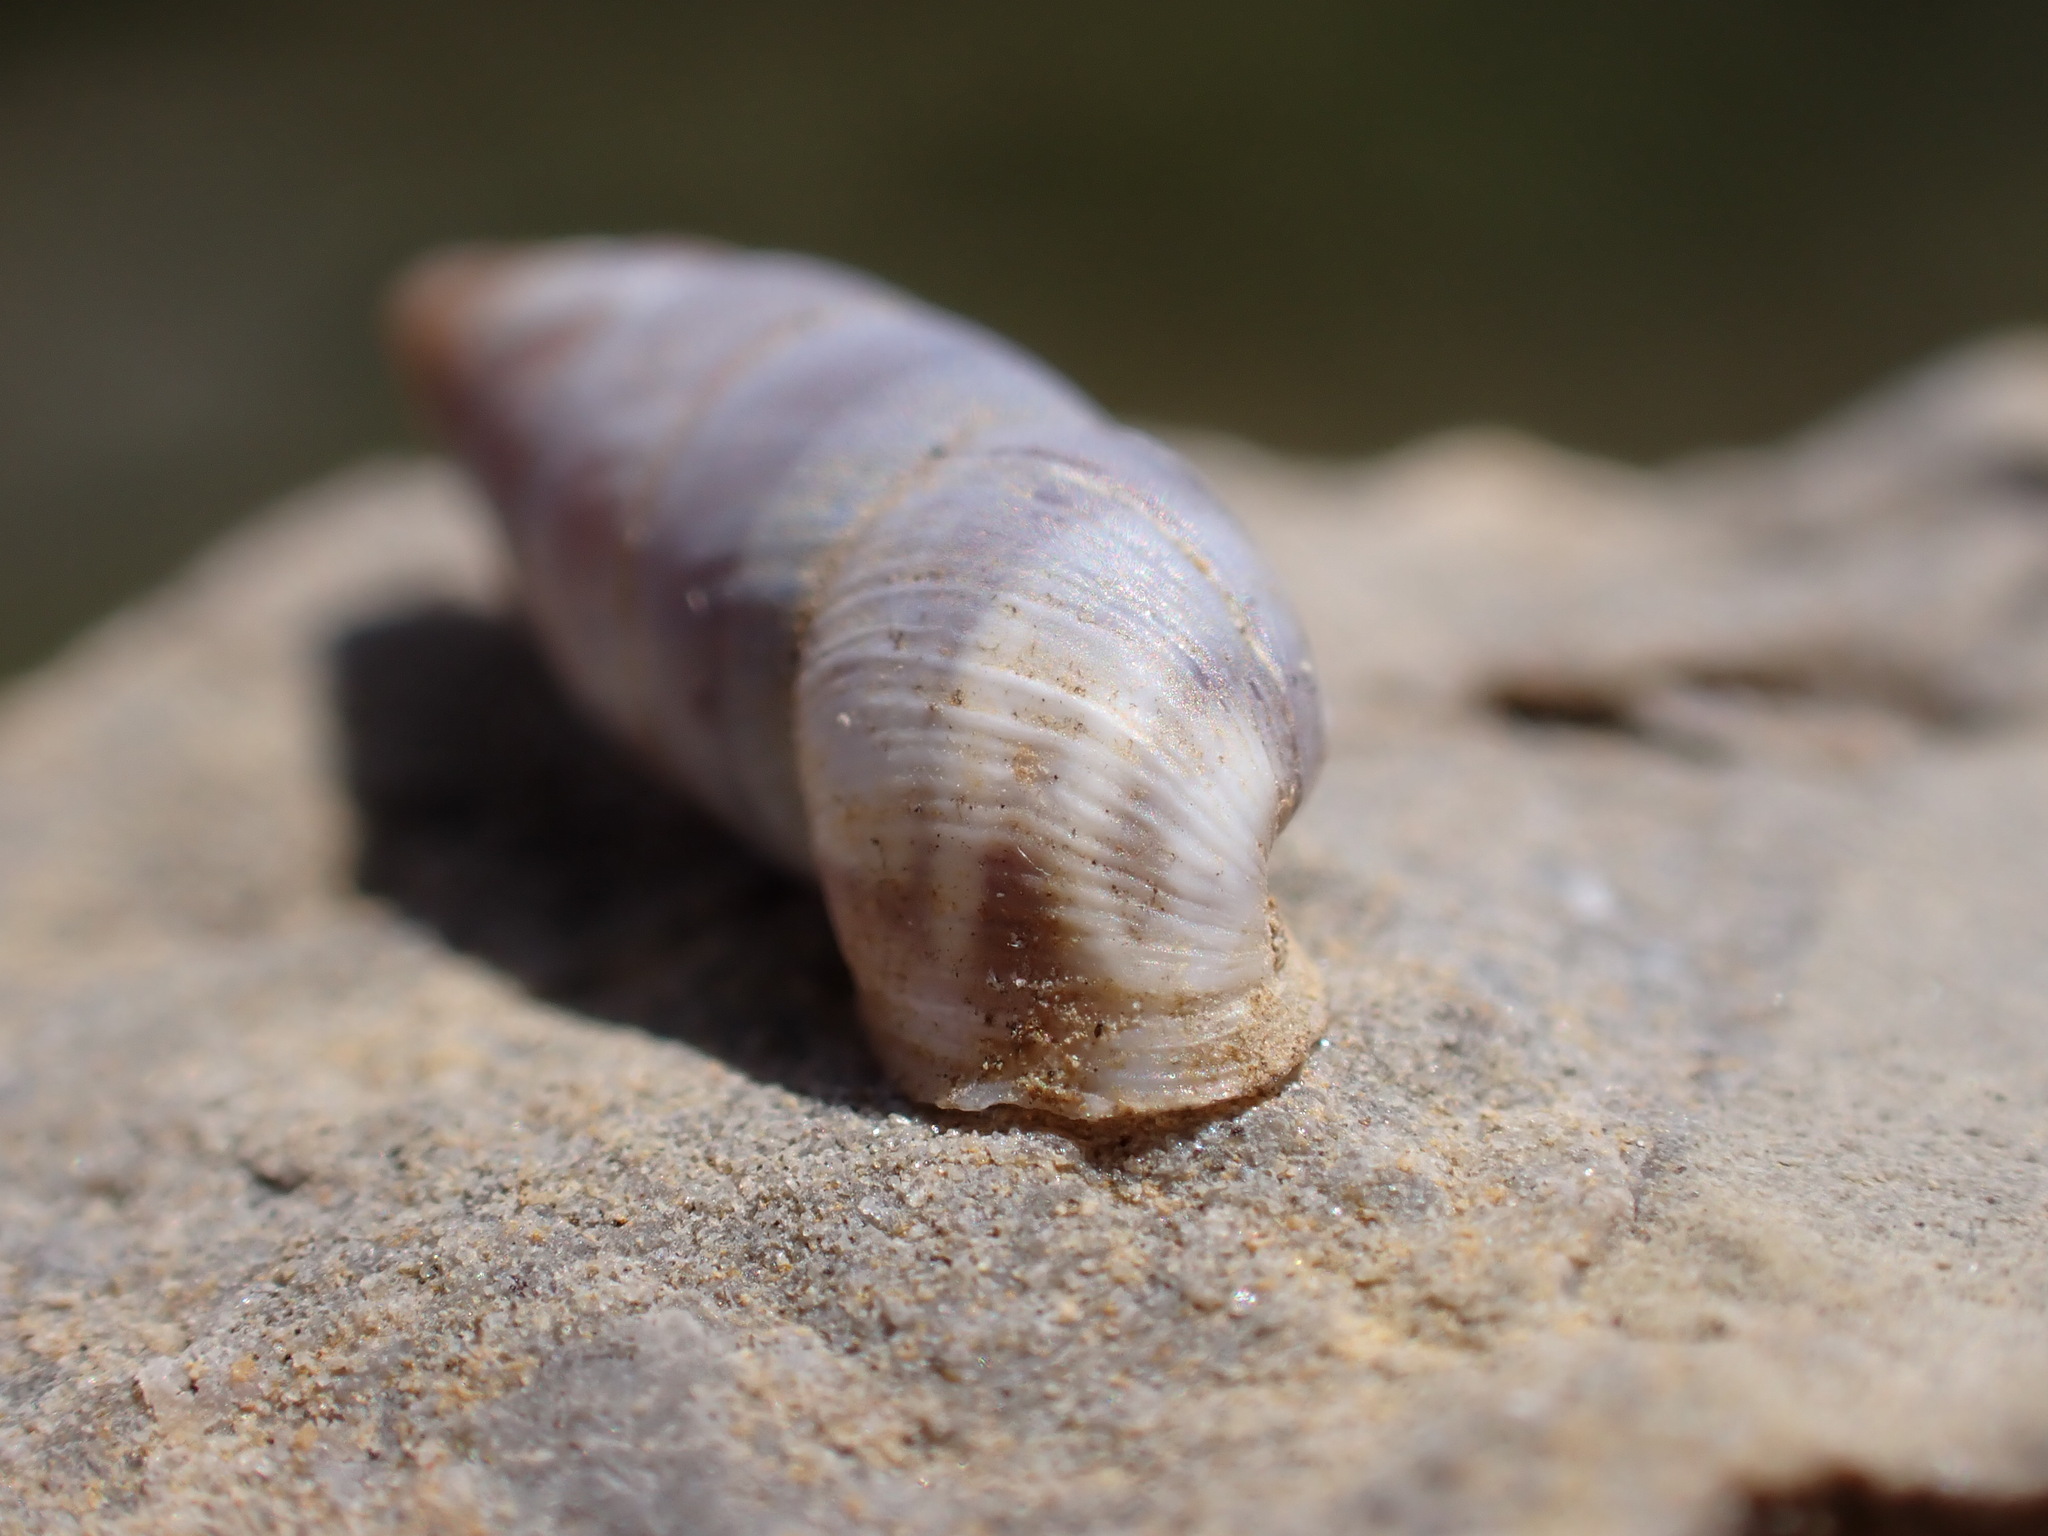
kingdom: Animalia
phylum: Mollusca
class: Gastropoda
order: Stylommatophora
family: Chondrinidae
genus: Solatopupa
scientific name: Solatopupa similis
